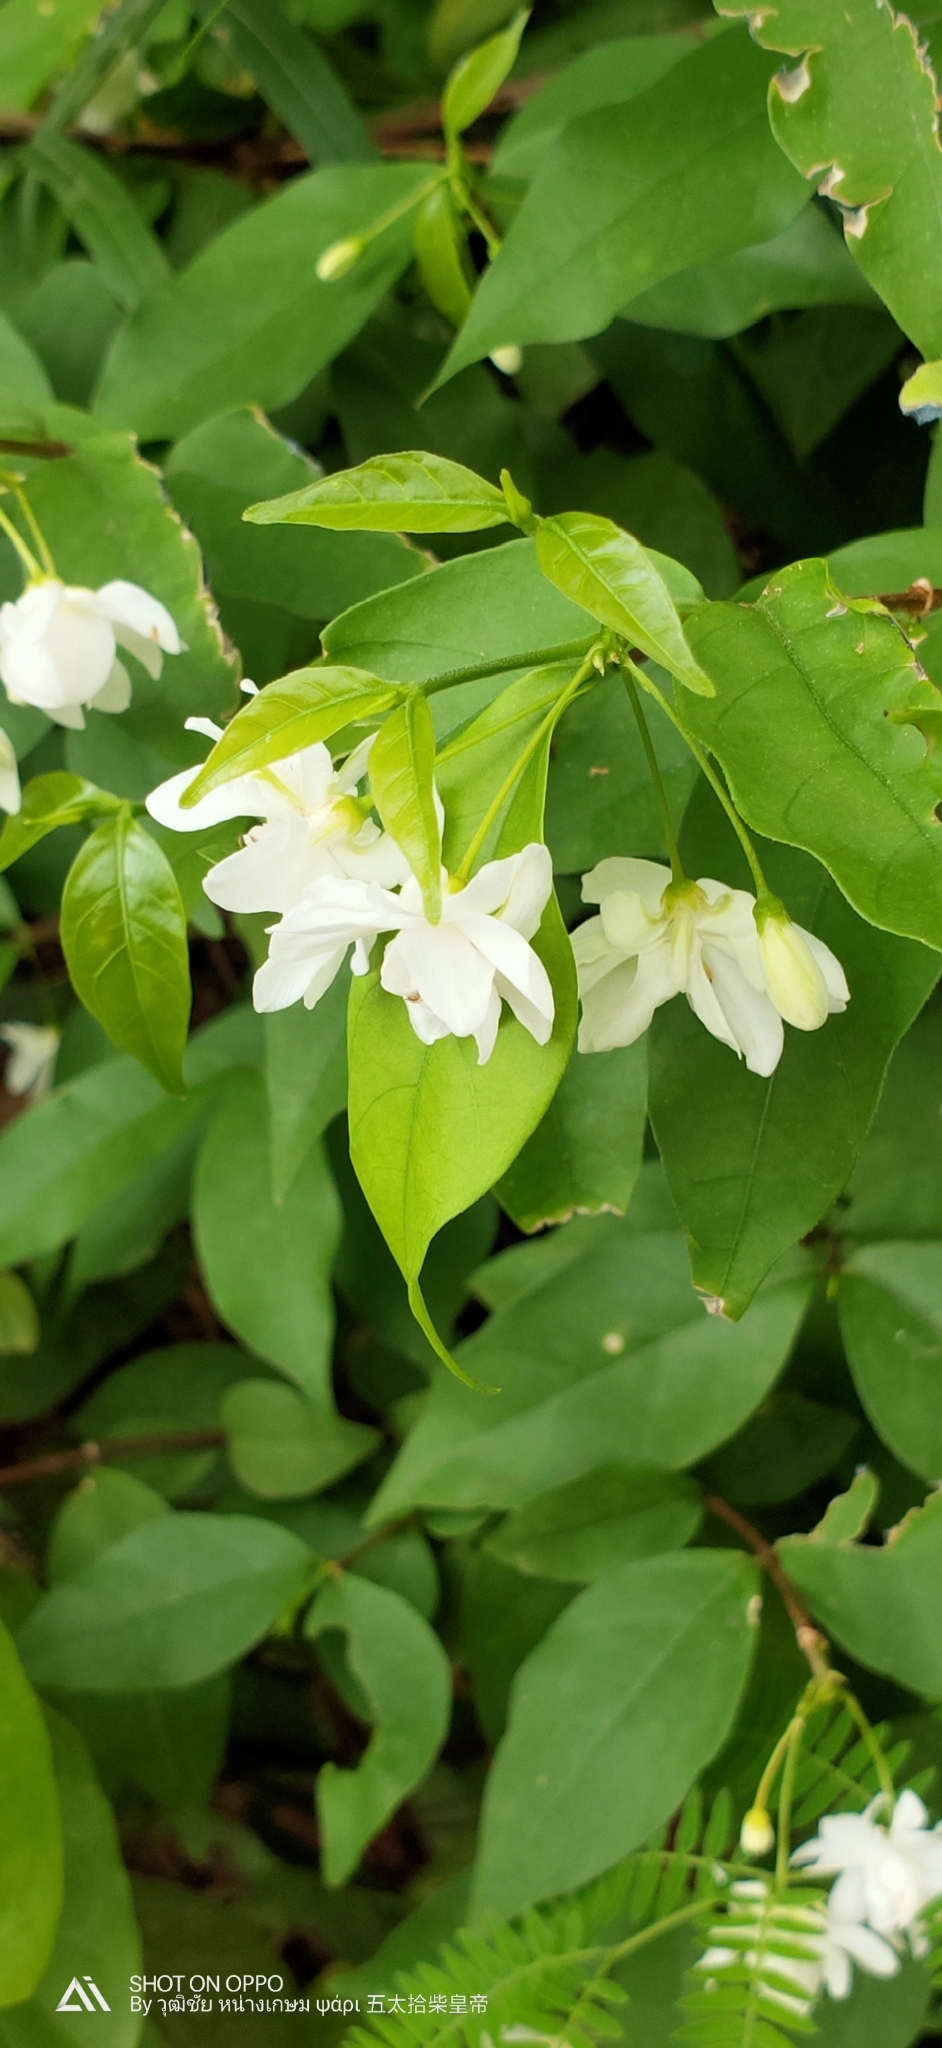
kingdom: Plantae
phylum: Tracheophyta
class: Magnoliopsida
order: Gentianales
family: Apocynaceae
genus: Wrightia
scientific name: Wrightia religiosa
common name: Water-jasmine
